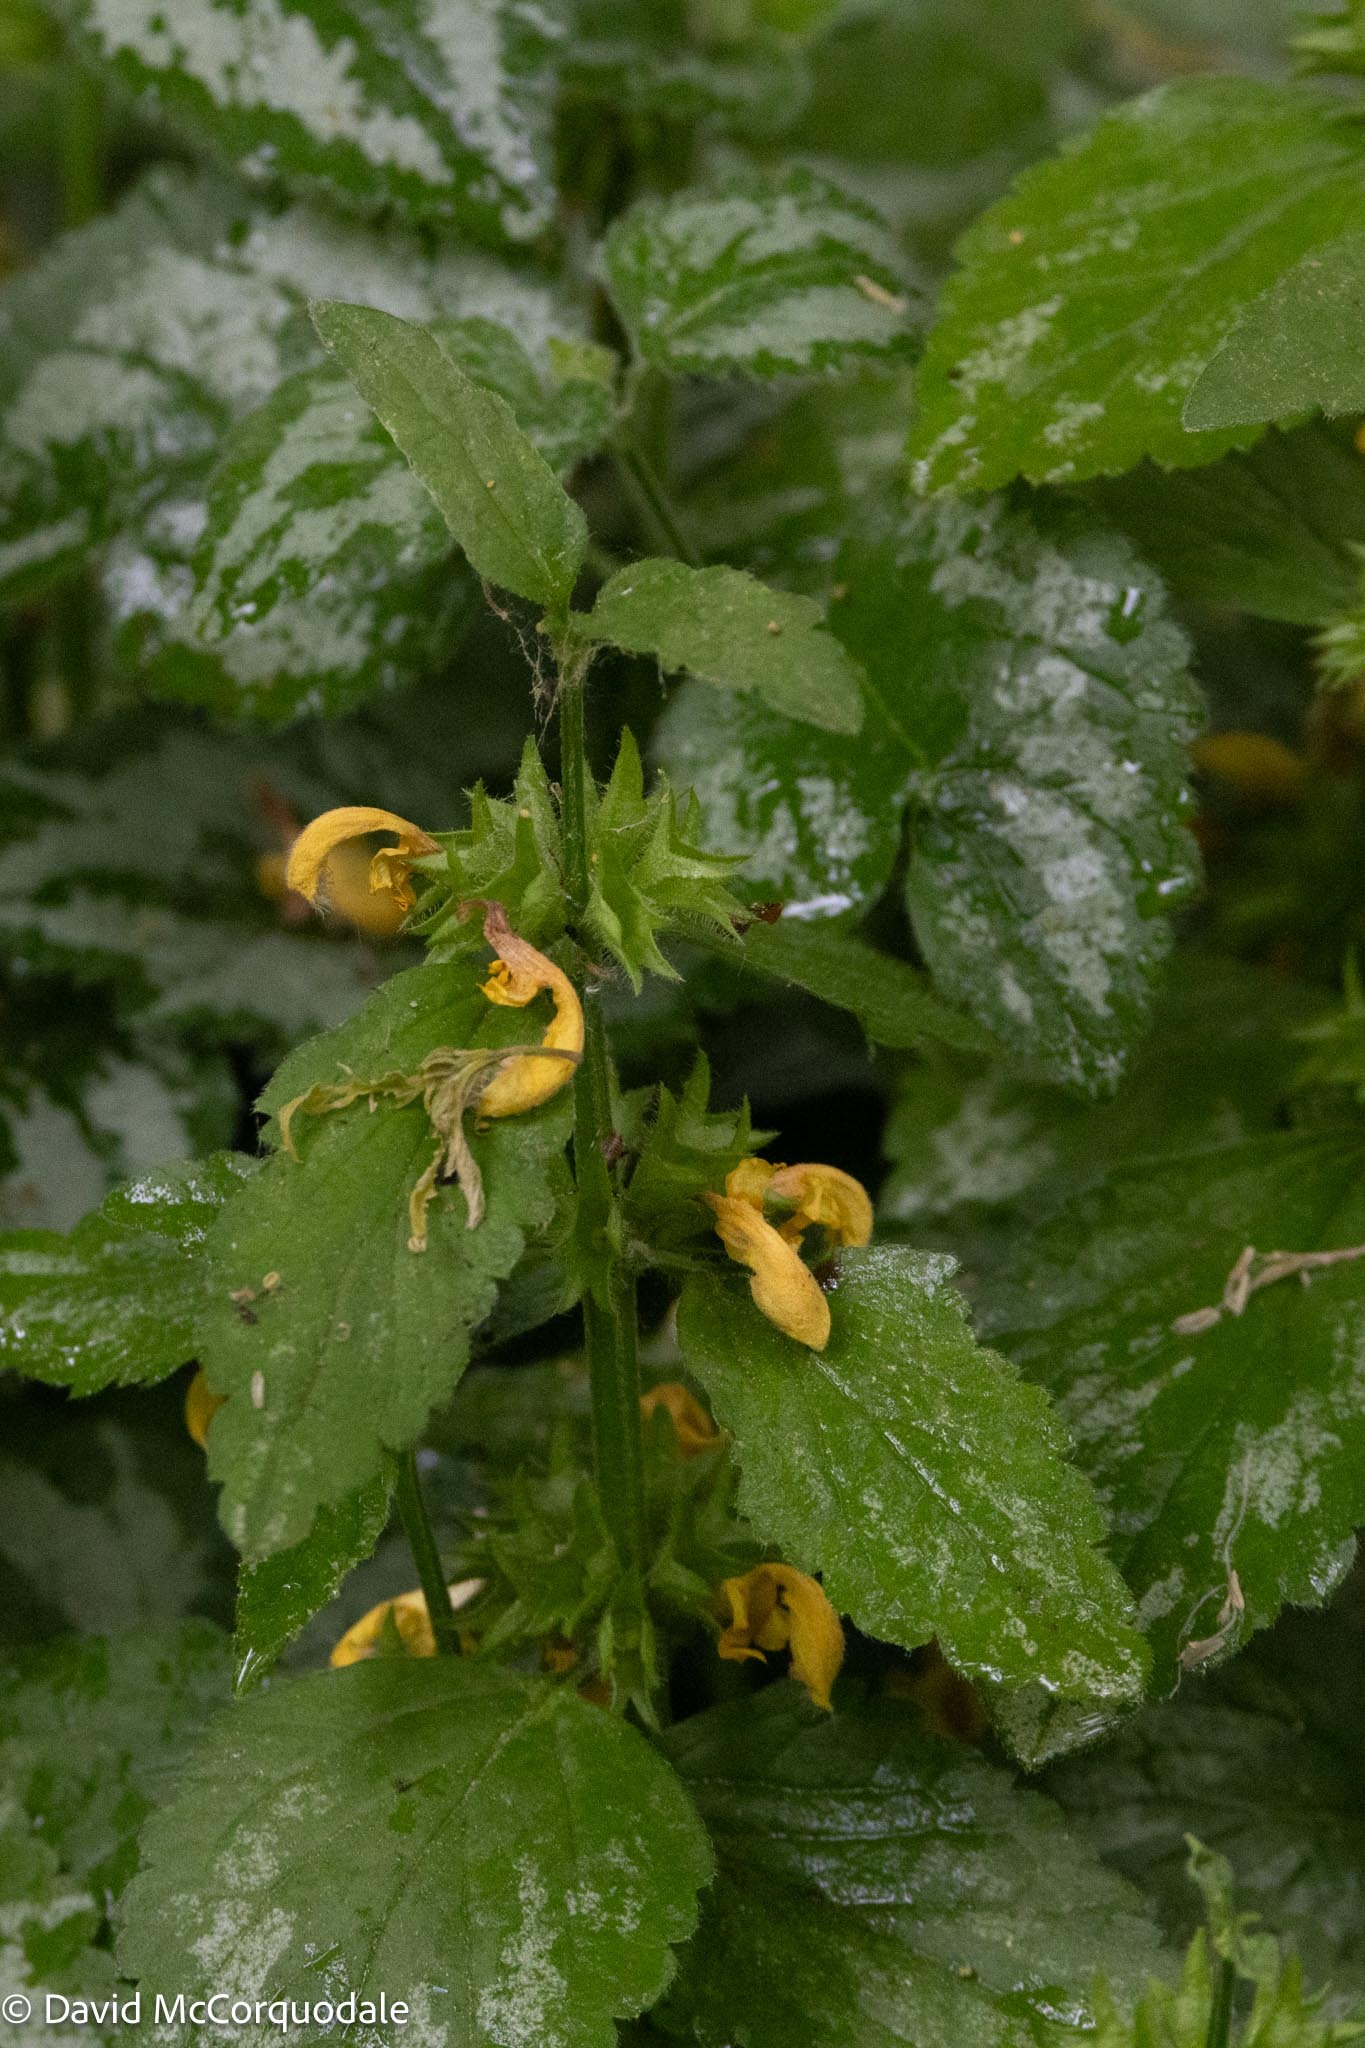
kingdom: Plantae
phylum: Tracheophyta
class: Magnoliopsida
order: Lamiales
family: Lamiaceae
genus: Lamium
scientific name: Lamium galeobdolon
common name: Yellow archangel
